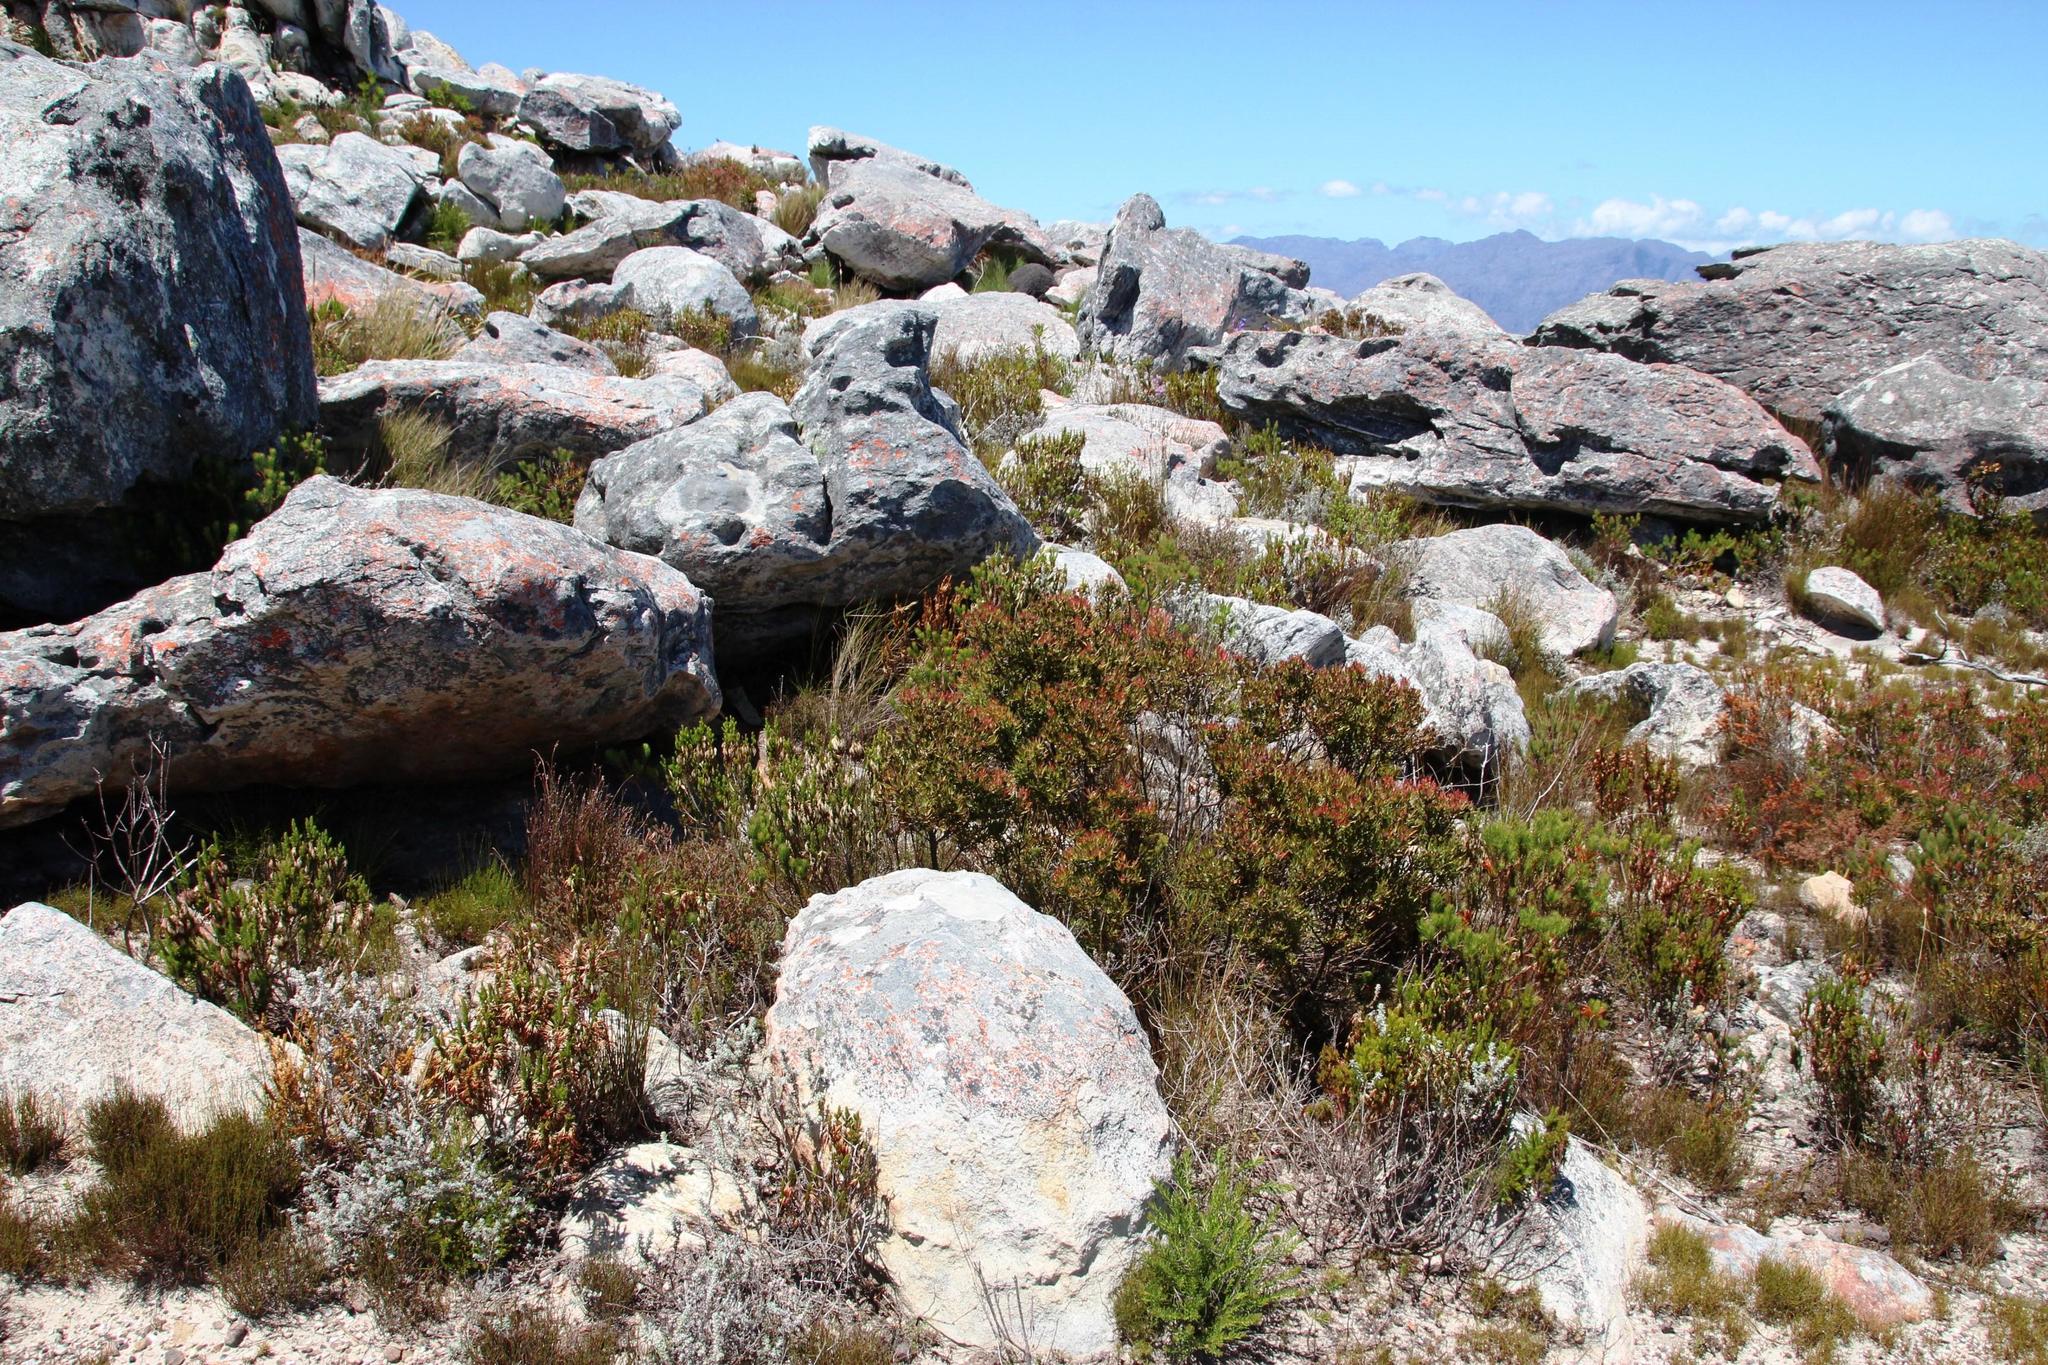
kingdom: Plantae
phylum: Tracheophyta
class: Magnoliopsida
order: Ericales
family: Ericaceae
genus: Erica
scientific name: Erica plukenetii
